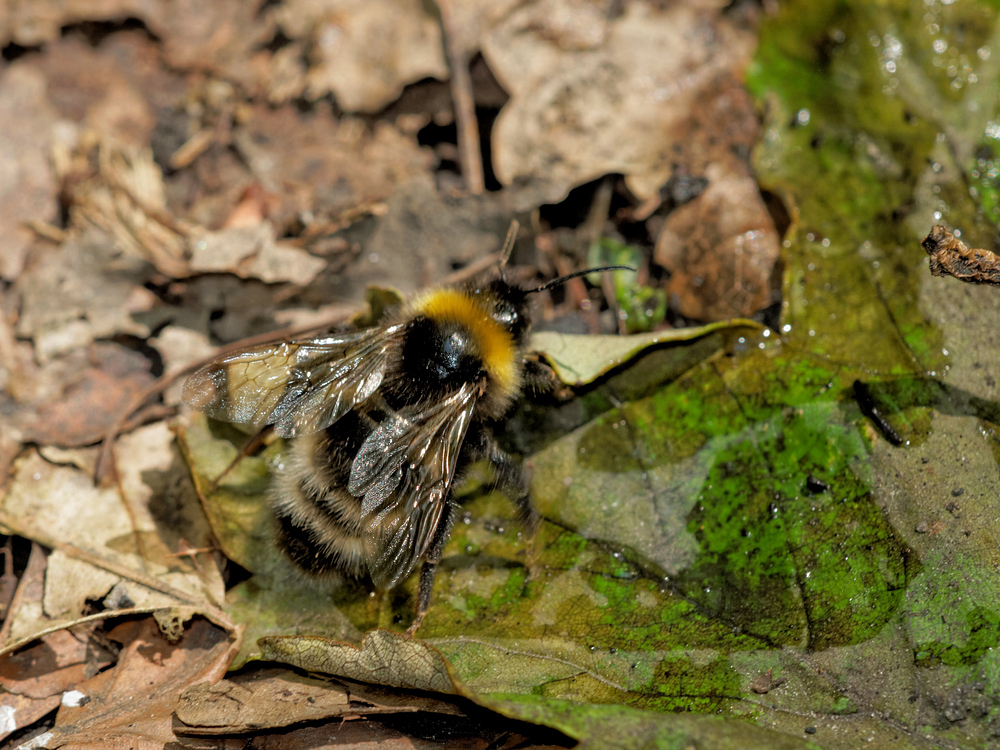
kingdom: Animalia
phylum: Arthropoda
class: Insecta
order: Hymenoptera
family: Apidae
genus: Bombus
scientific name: Bombus
